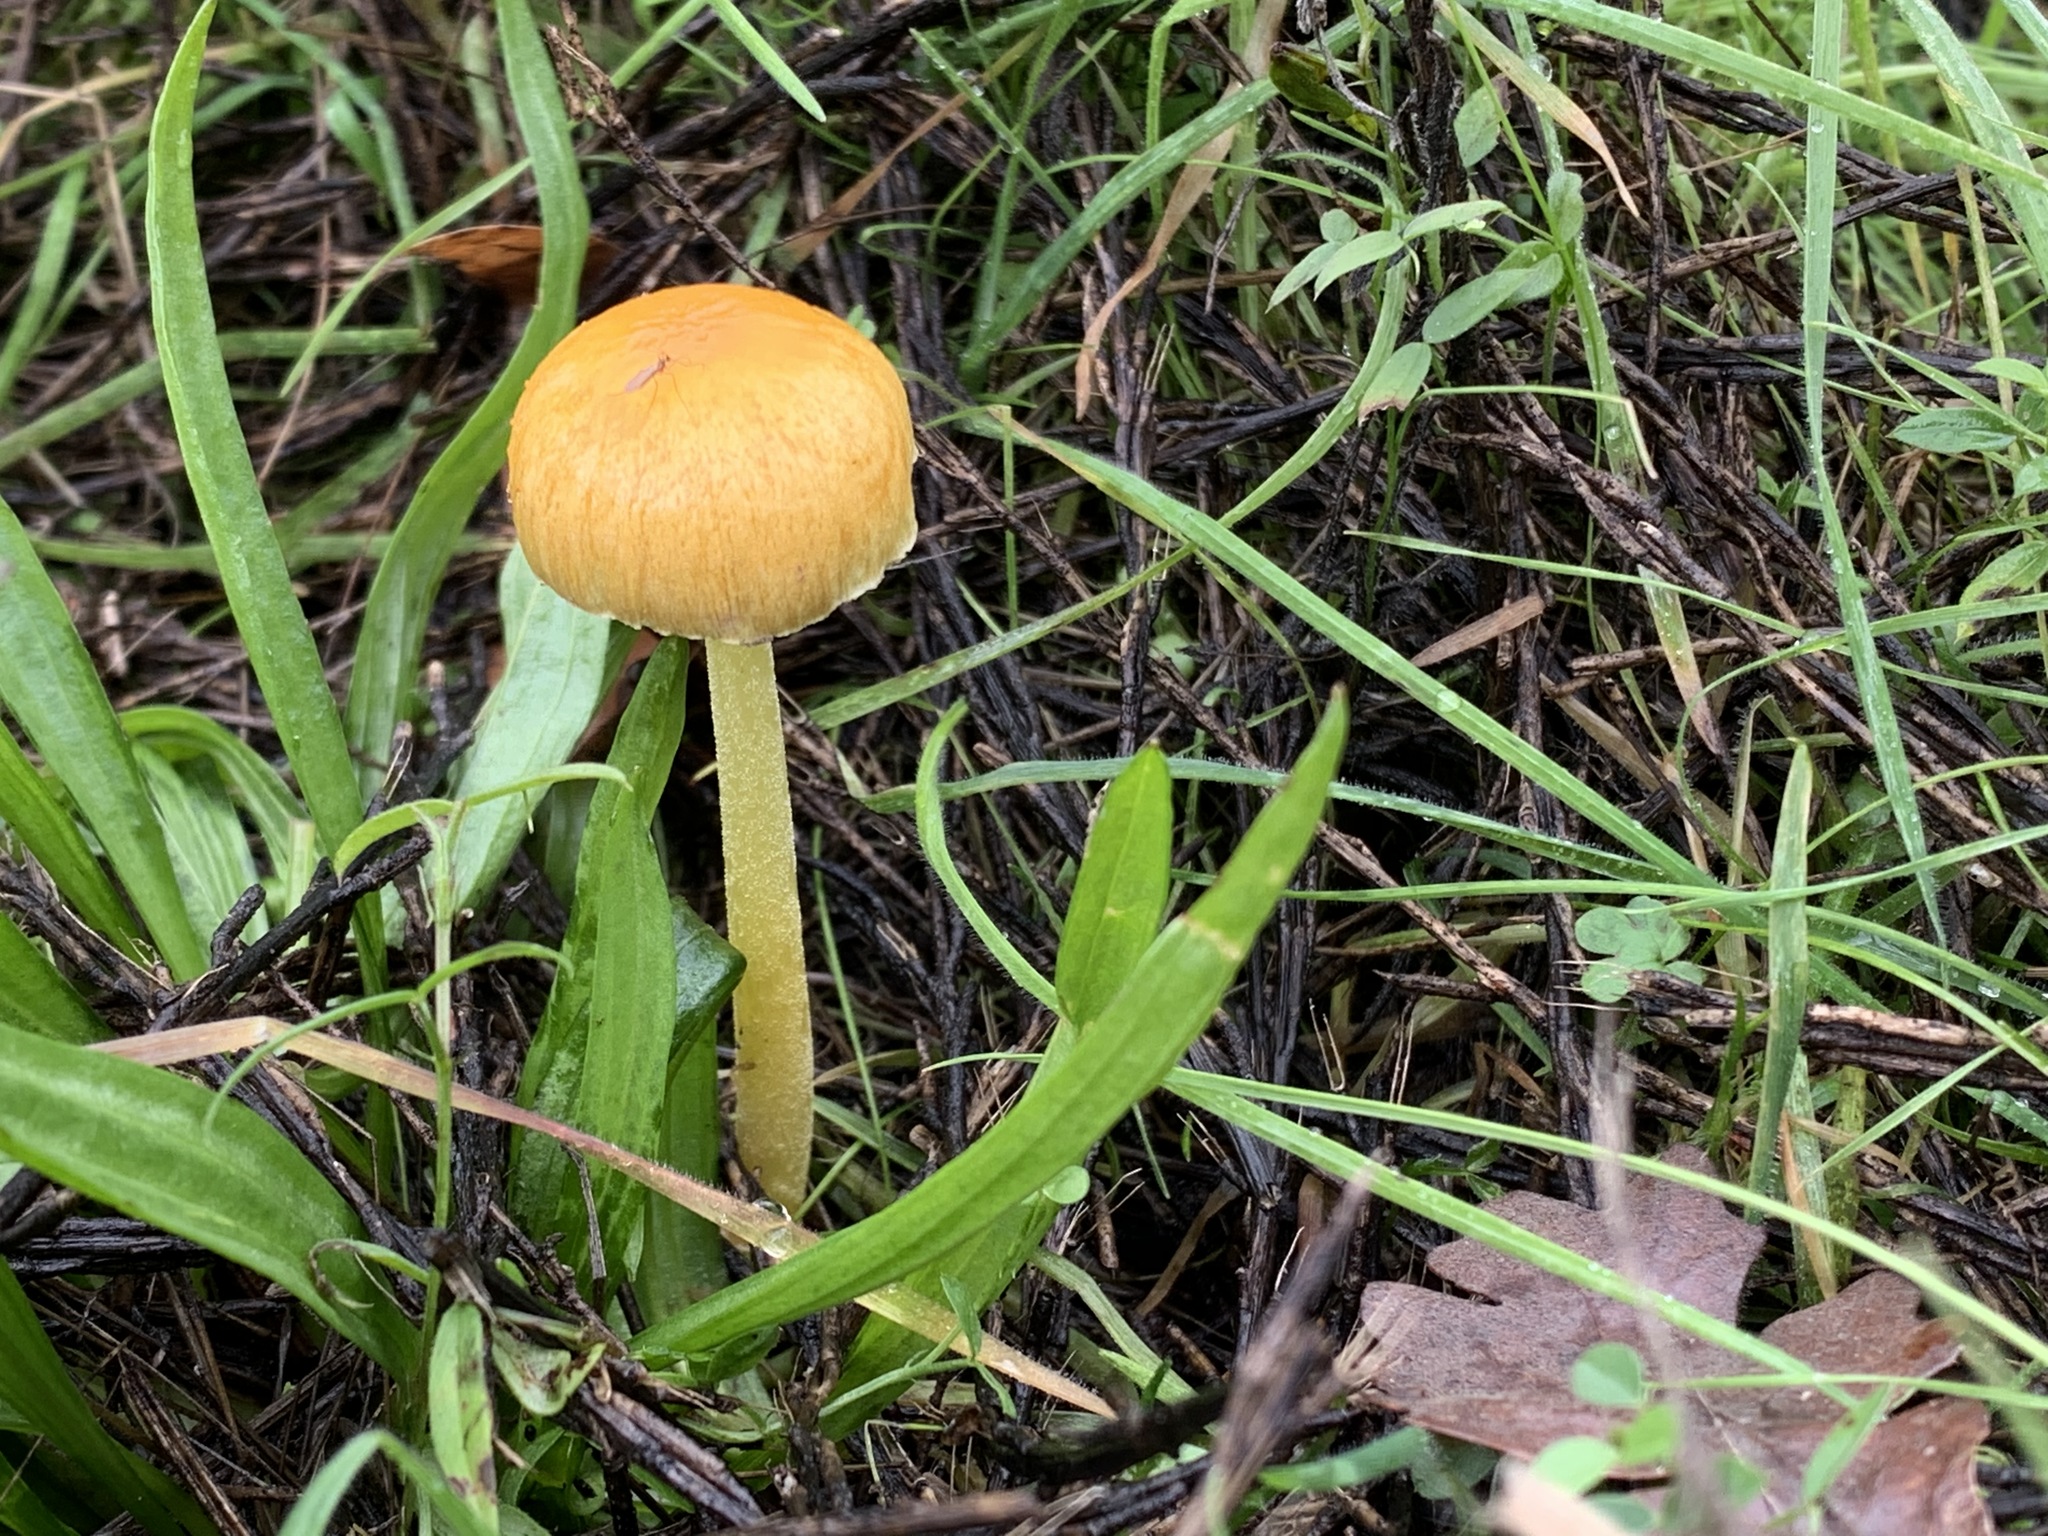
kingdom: Fungi
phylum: Basidiomycota
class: Agaricomycetes
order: Agaricales
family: Bolbitiaceae
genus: Bolbitius
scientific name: Bolbitius titubans
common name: Yellow fieldcap
